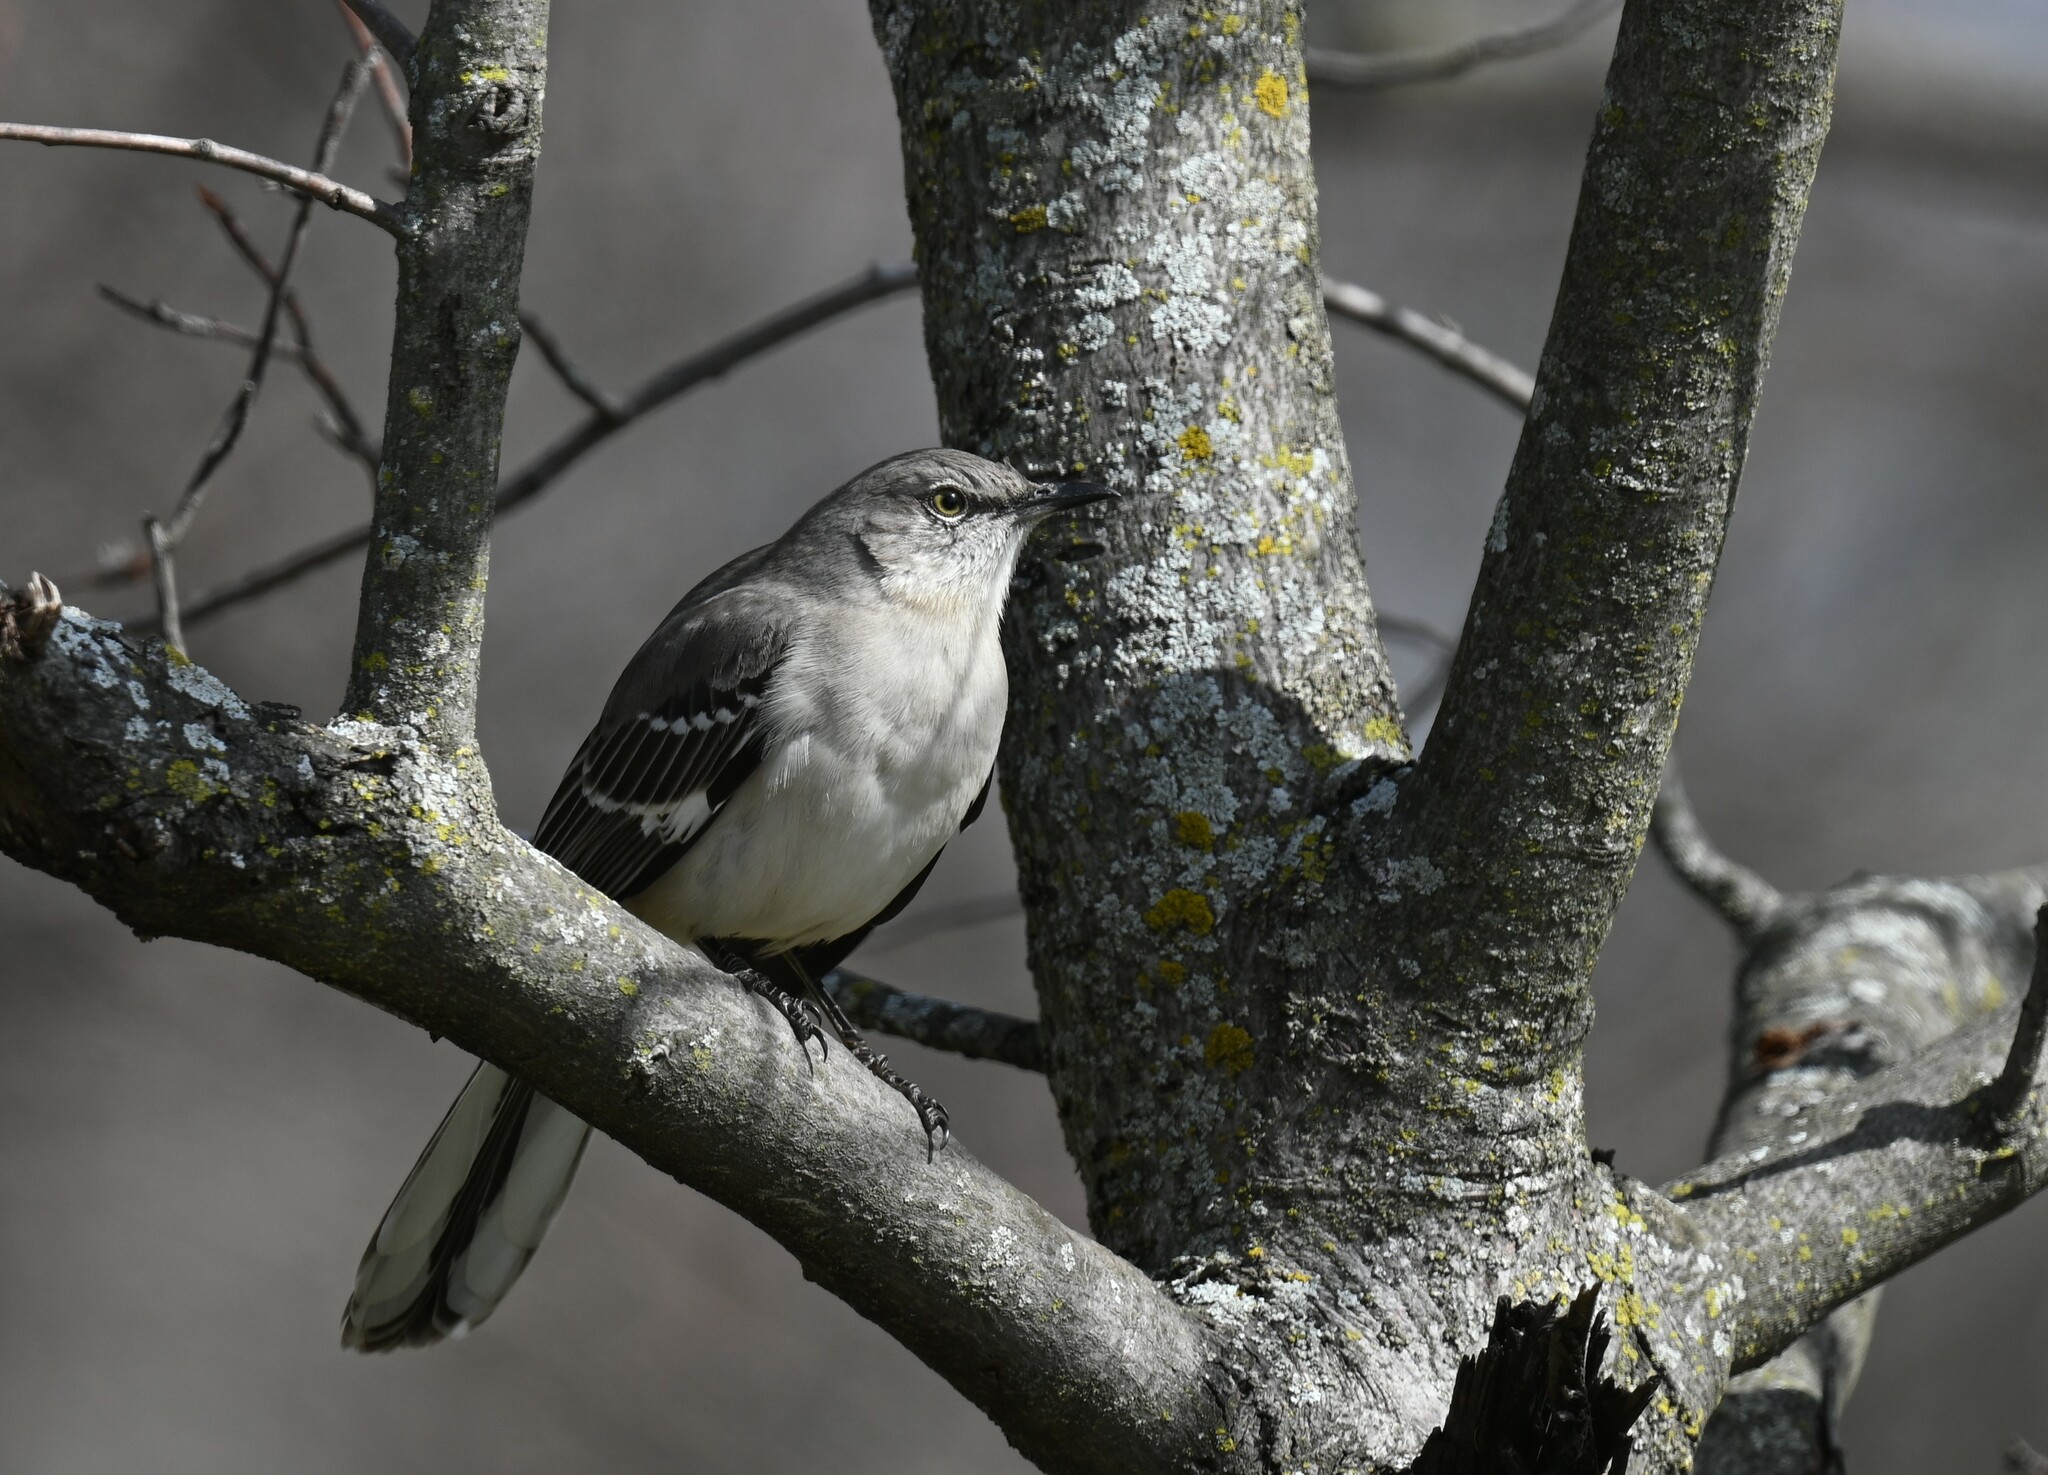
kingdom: Animalia
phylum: Chordata
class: Aves
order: Passeriformes
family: Mimidae
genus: Mimus
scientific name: Mimus polyglottos
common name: Northern mockingbird
